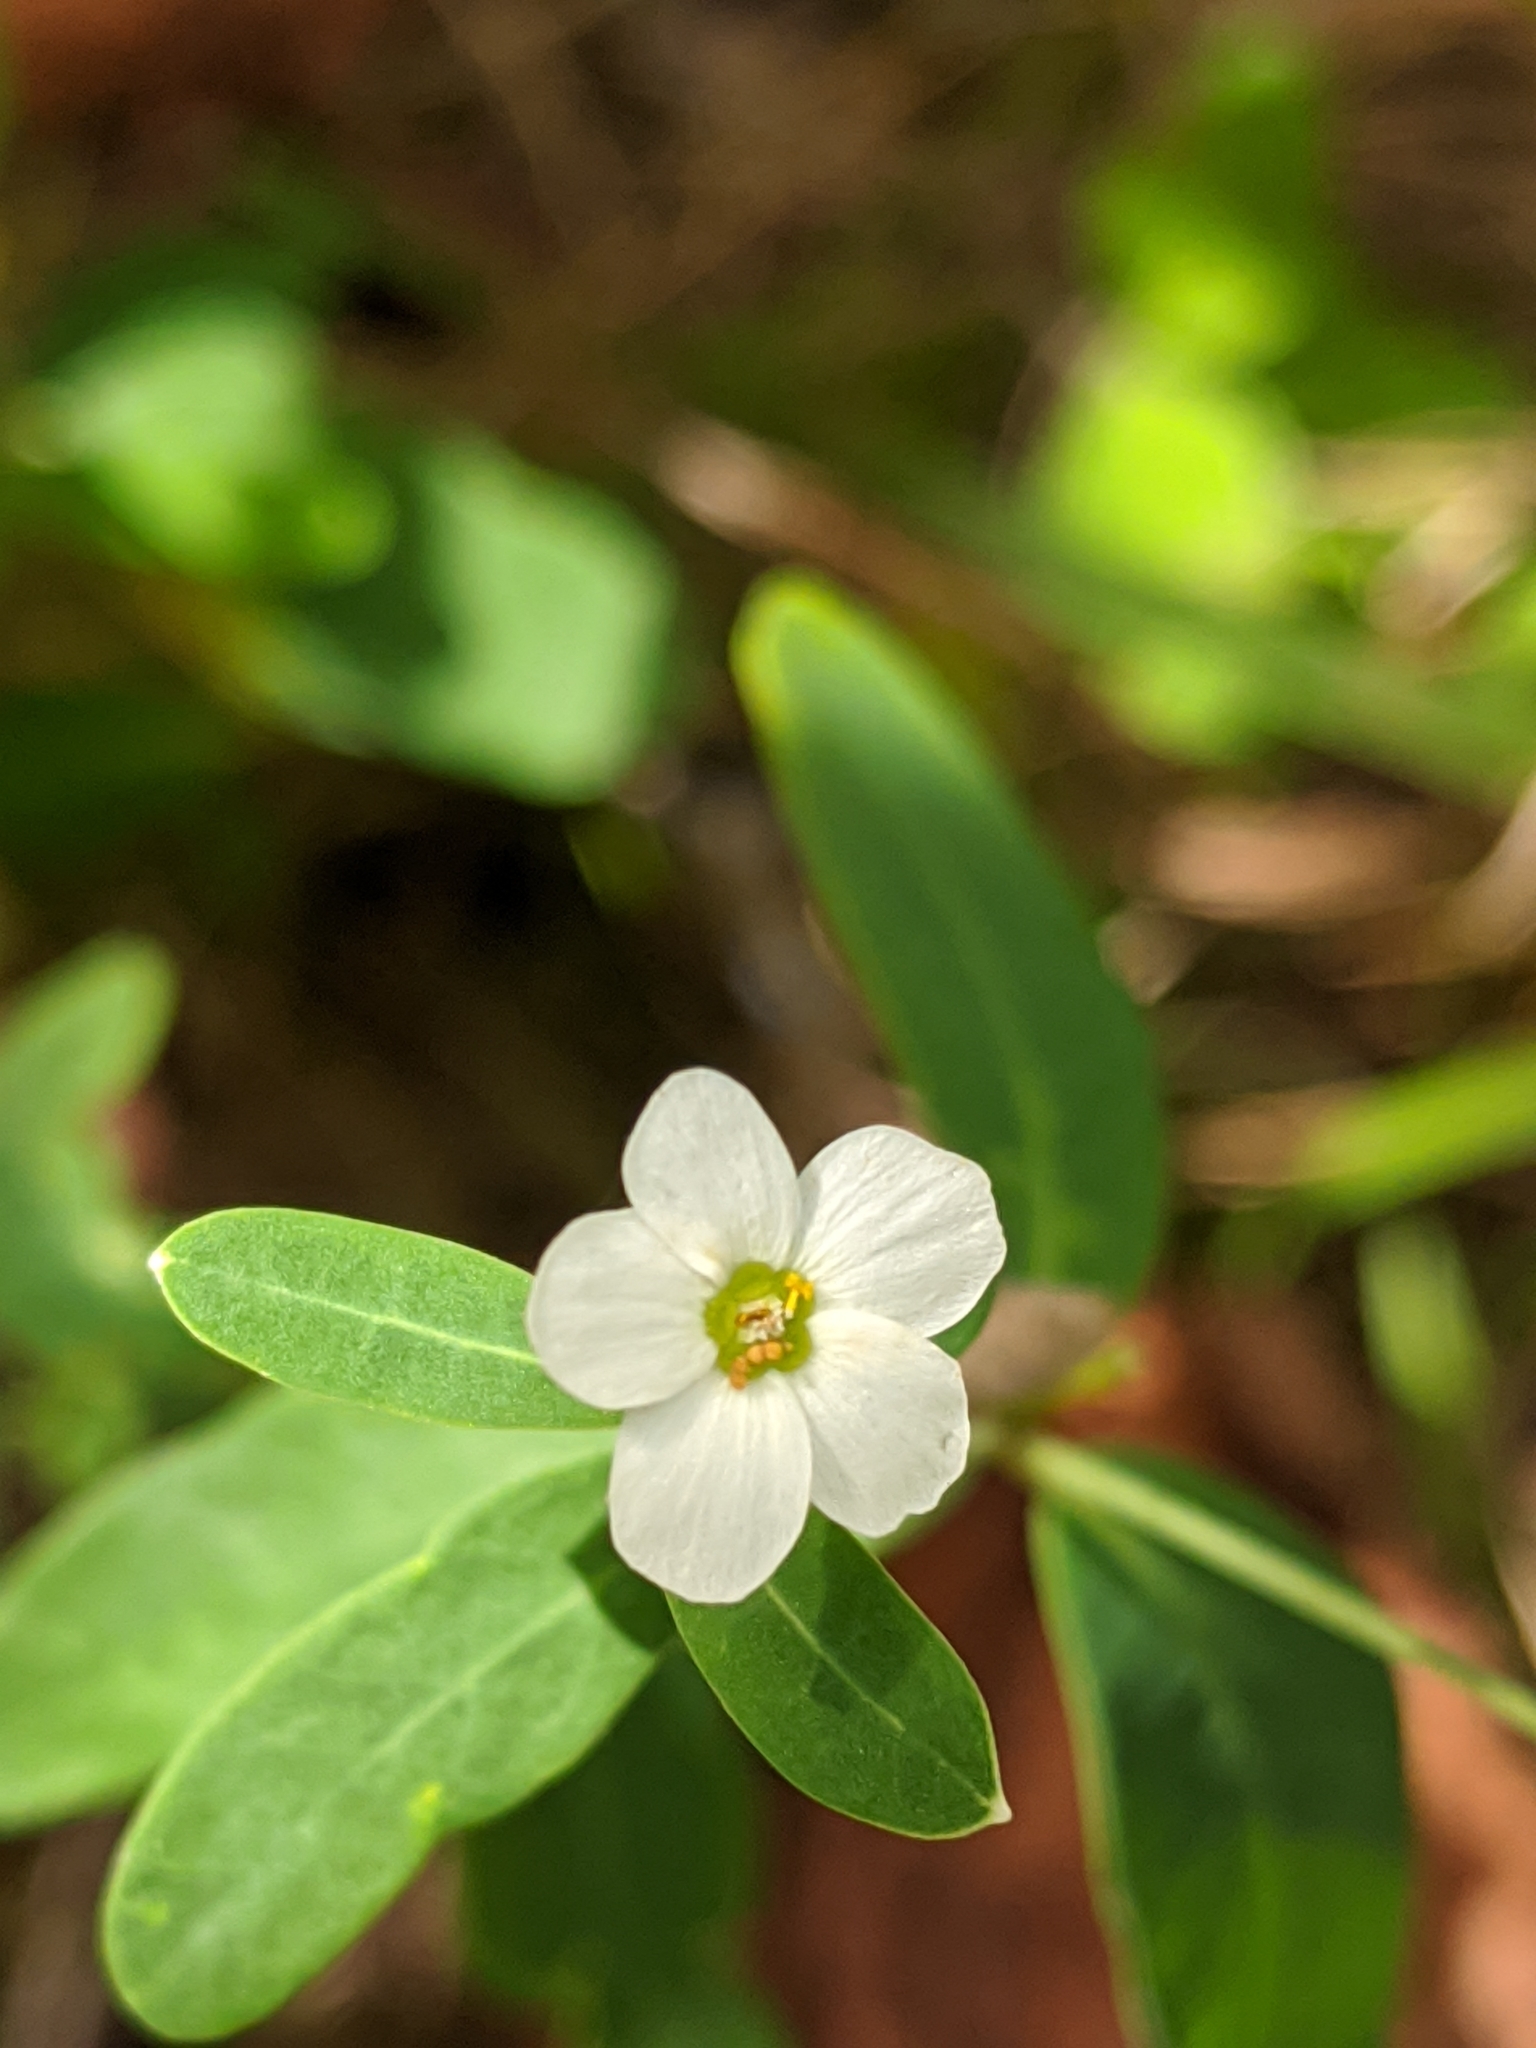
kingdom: Plantae
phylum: Tracheophyta
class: Magnoliopsida
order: Malpighiales
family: Euphorbiaceae
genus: Euphorbia
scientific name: Euphorbia corollata
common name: Flowering spurge
